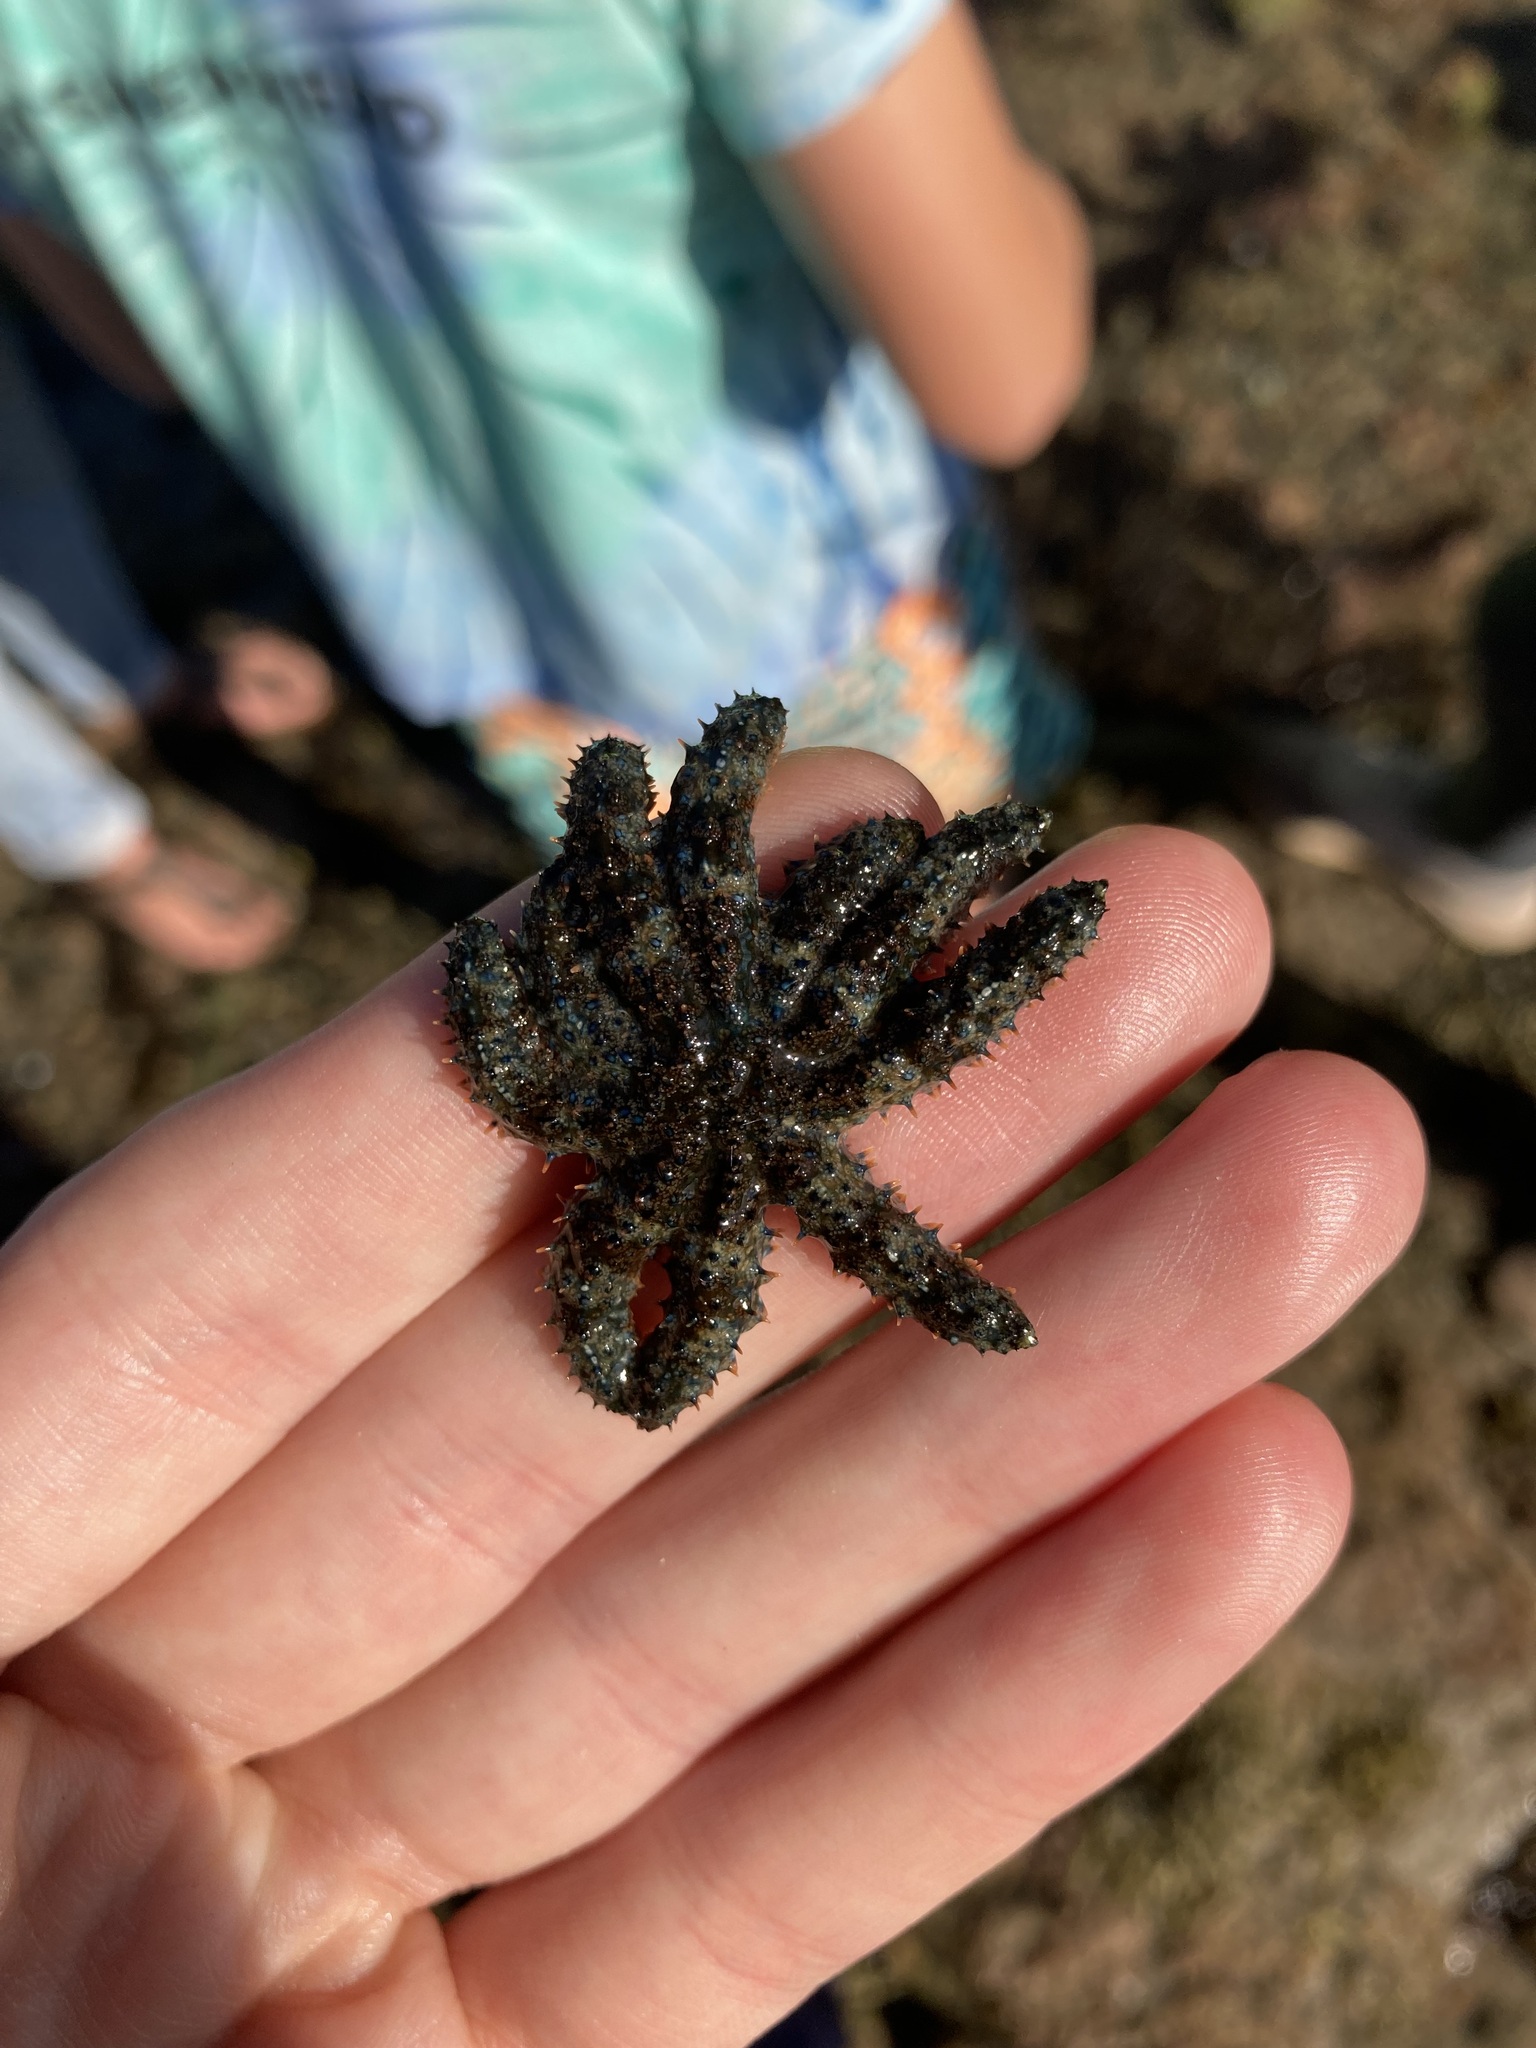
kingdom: Animalia
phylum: Echinodermata
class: Asteroidea
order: Forcipulatida
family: Asteriidae
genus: Coscinasterias
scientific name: Coscinasterias muricata
